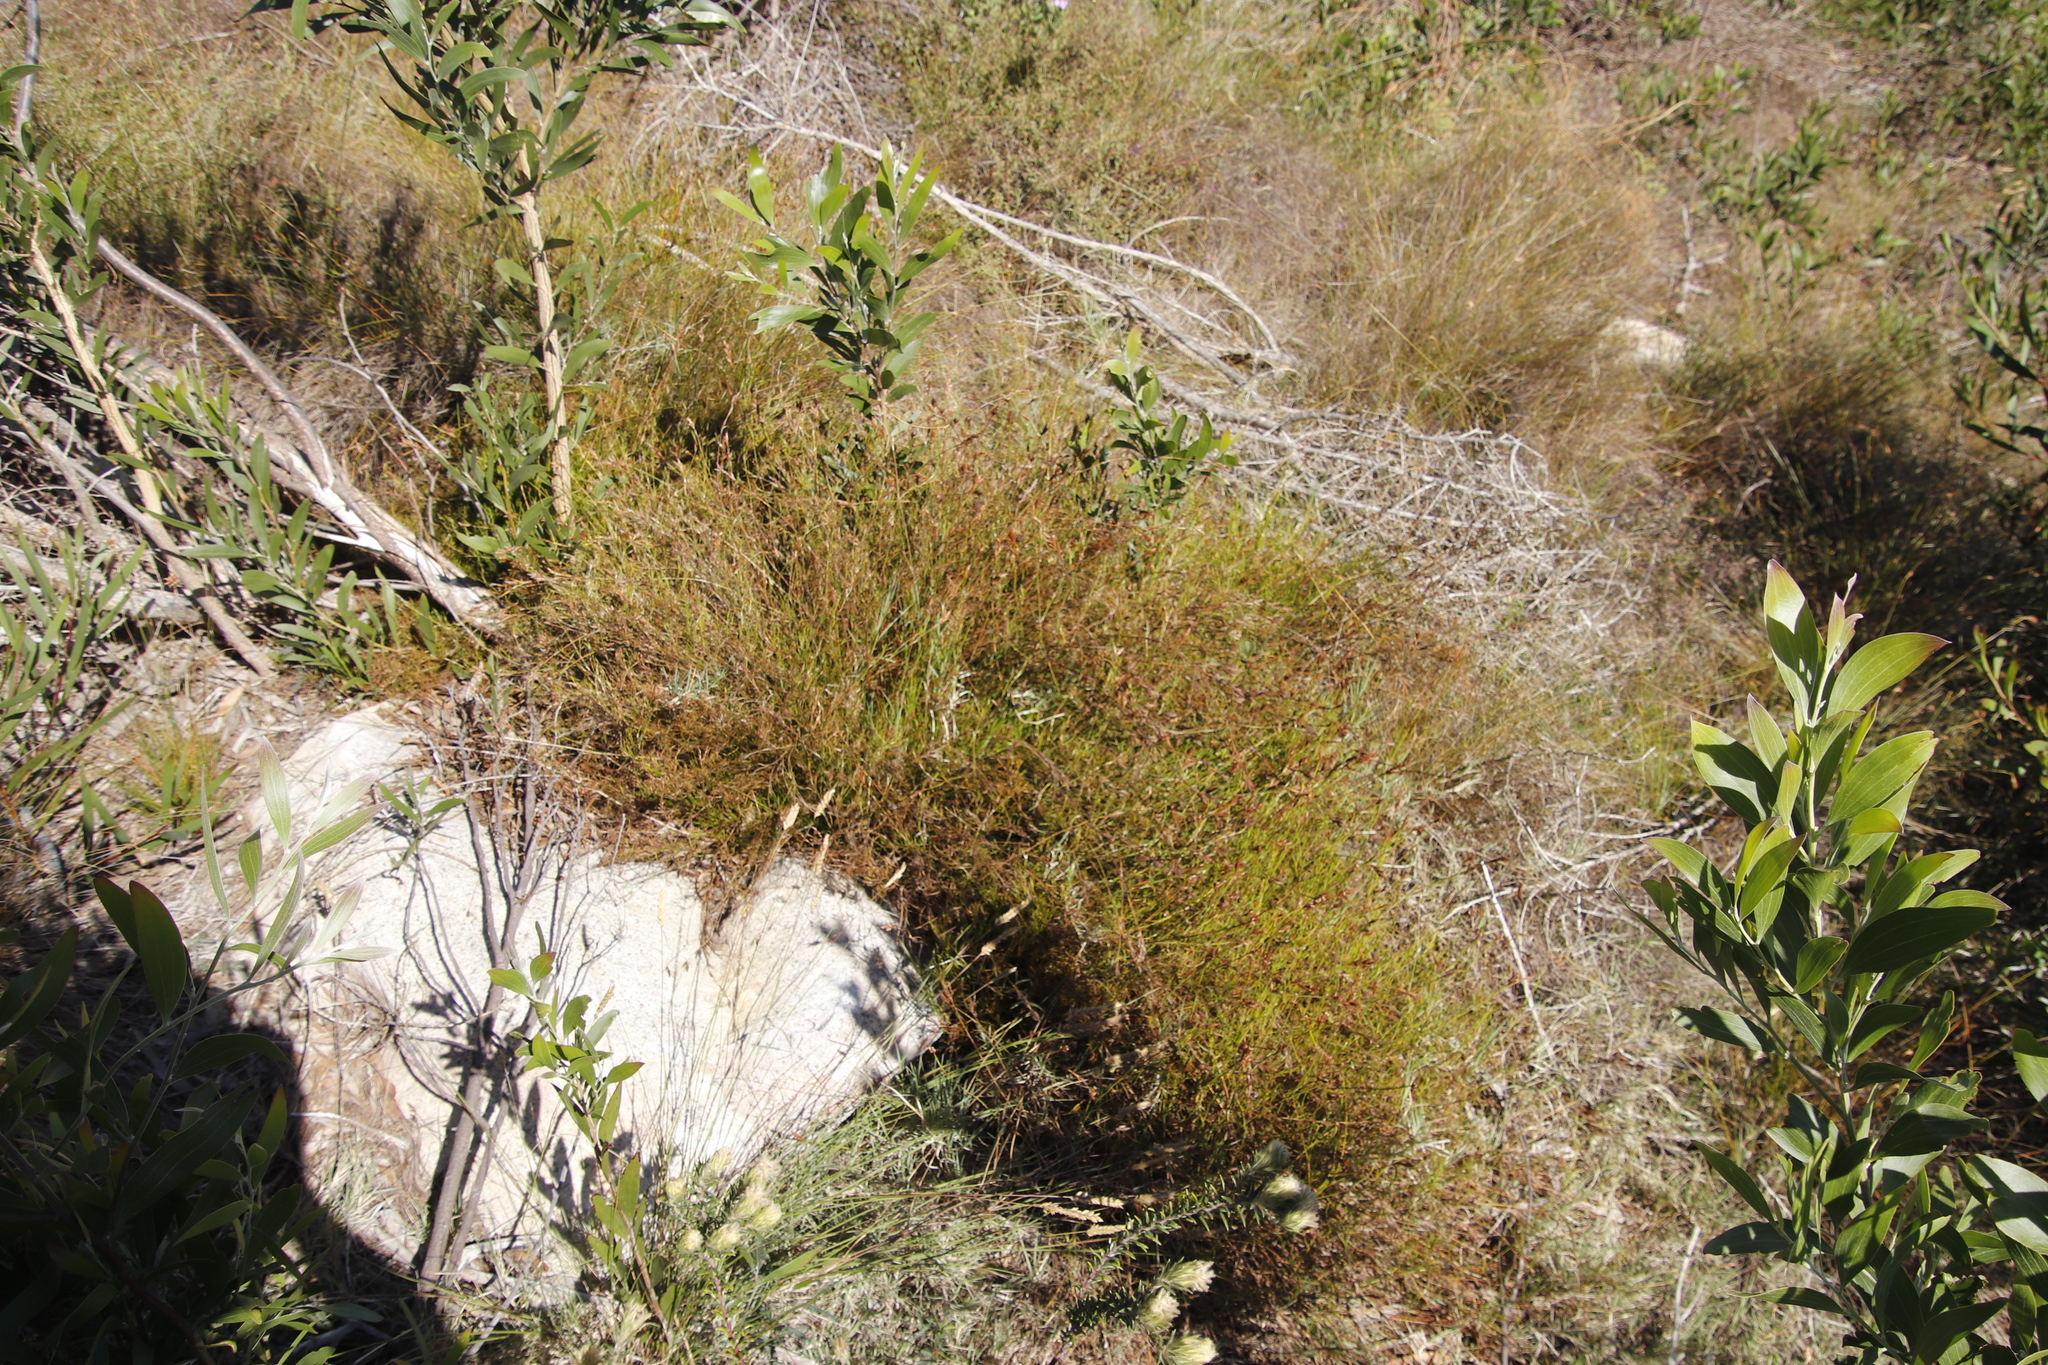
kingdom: Plantae
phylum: Tracheophyta
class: Liliopsida
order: Poales
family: Restionaceae
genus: Restio
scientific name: Restio capensis
